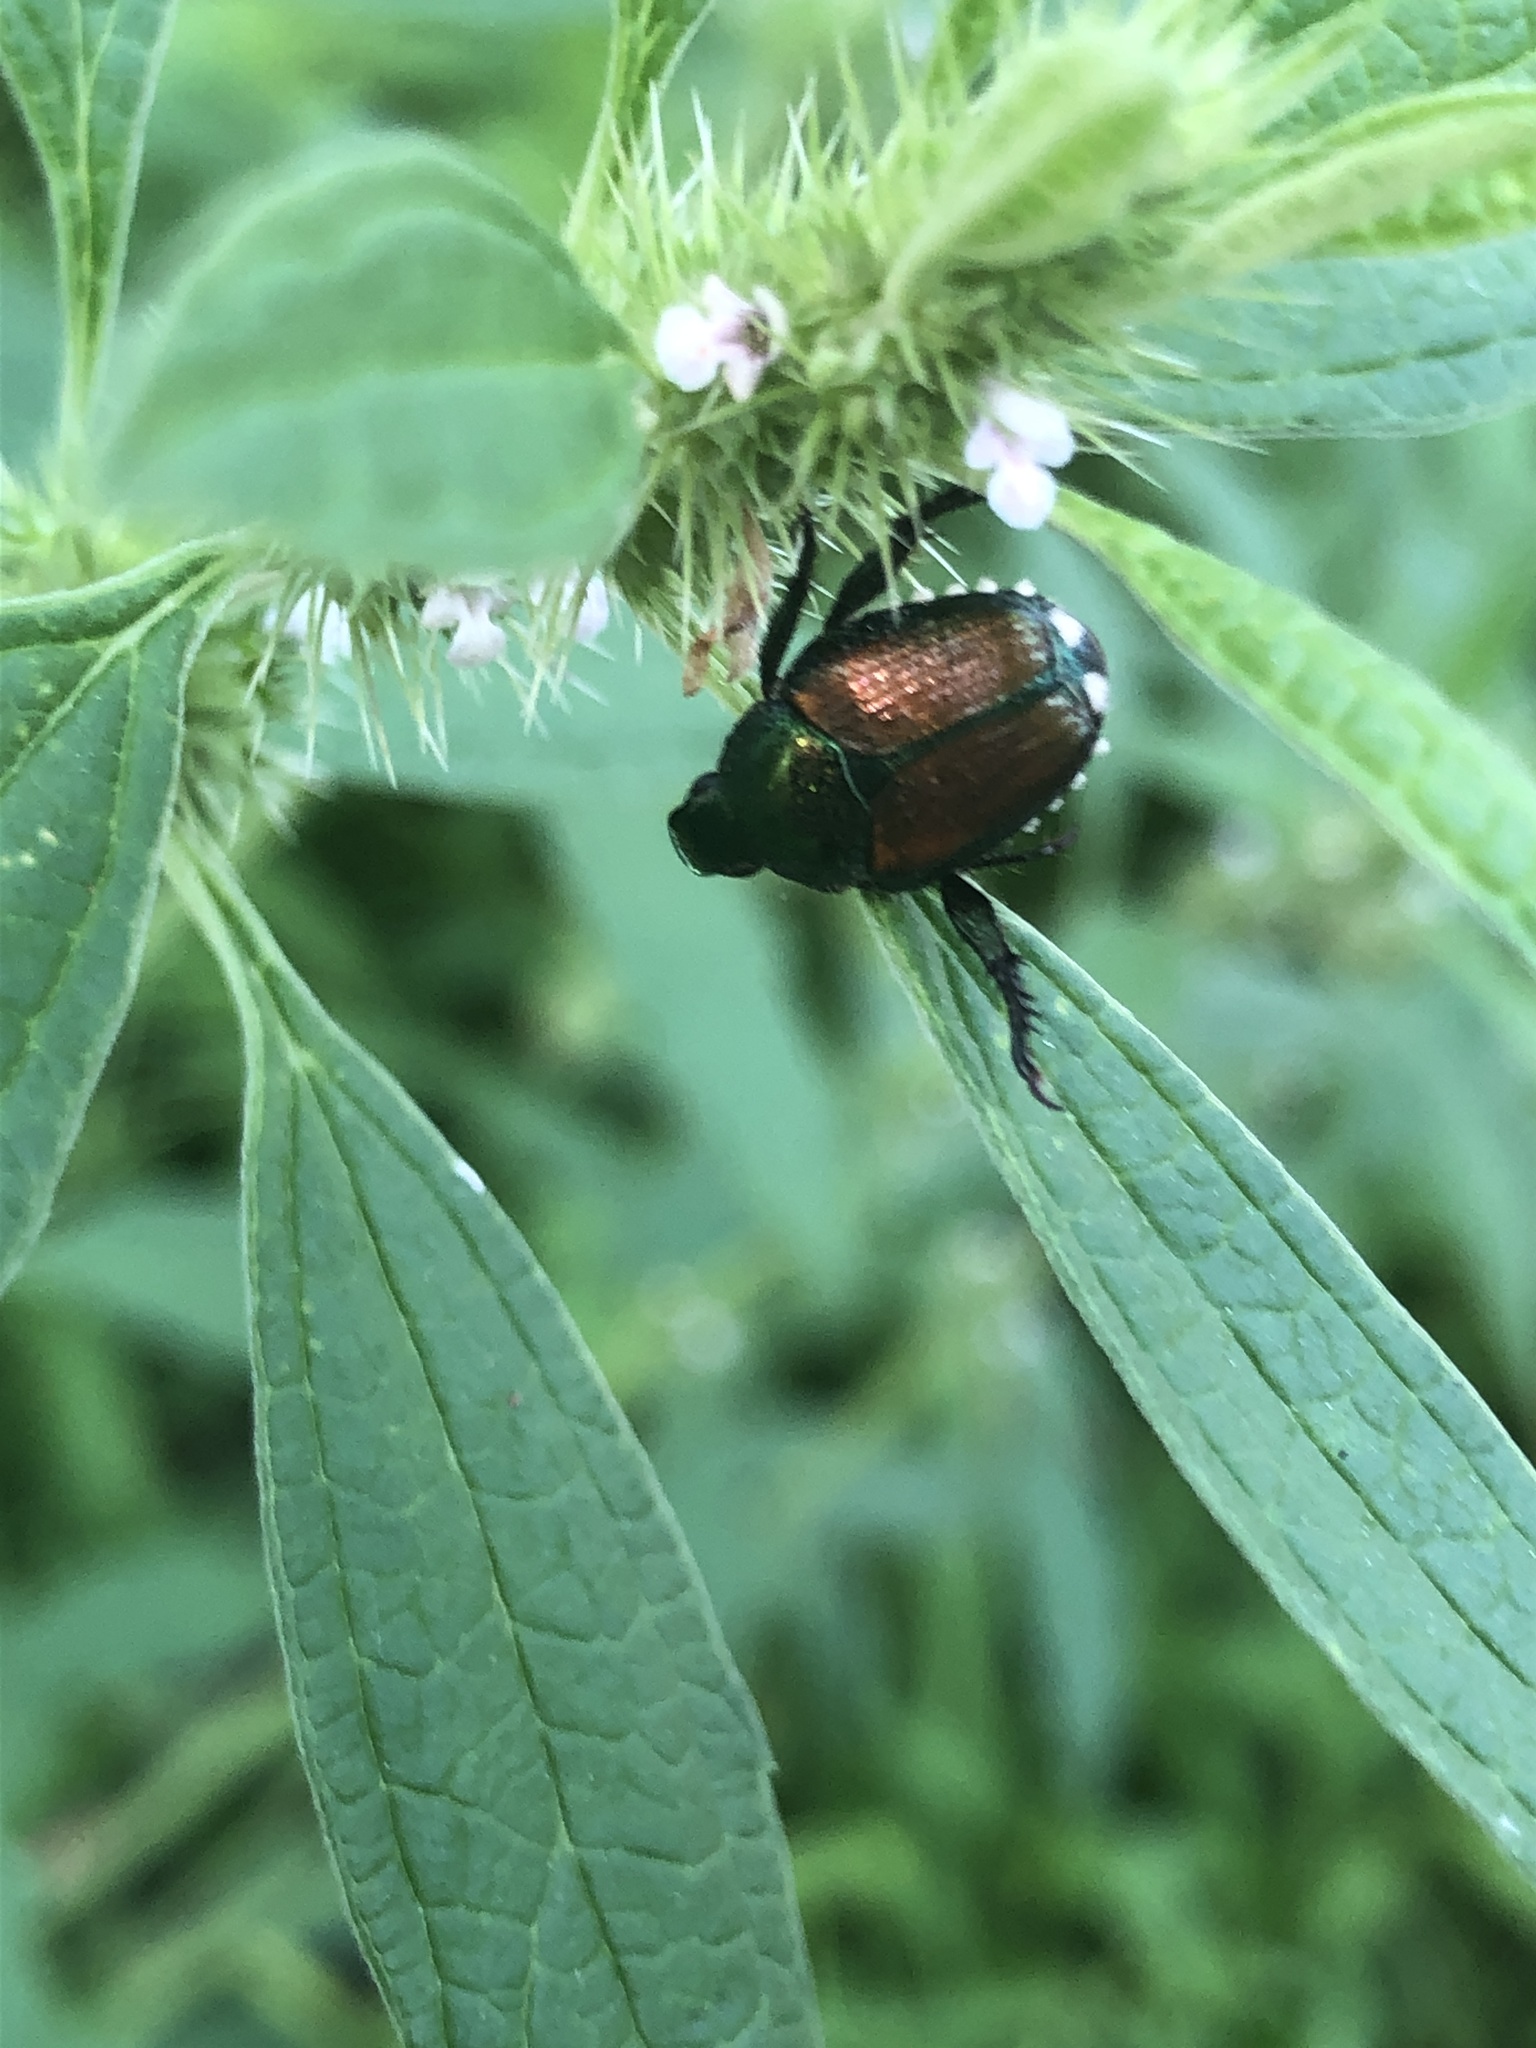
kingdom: Animalia
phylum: Arthropoda
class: Insecta
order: Coleoptera
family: Scarabaeidae
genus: Popillia
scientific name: Popillia japonica
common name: Japanese beetle
